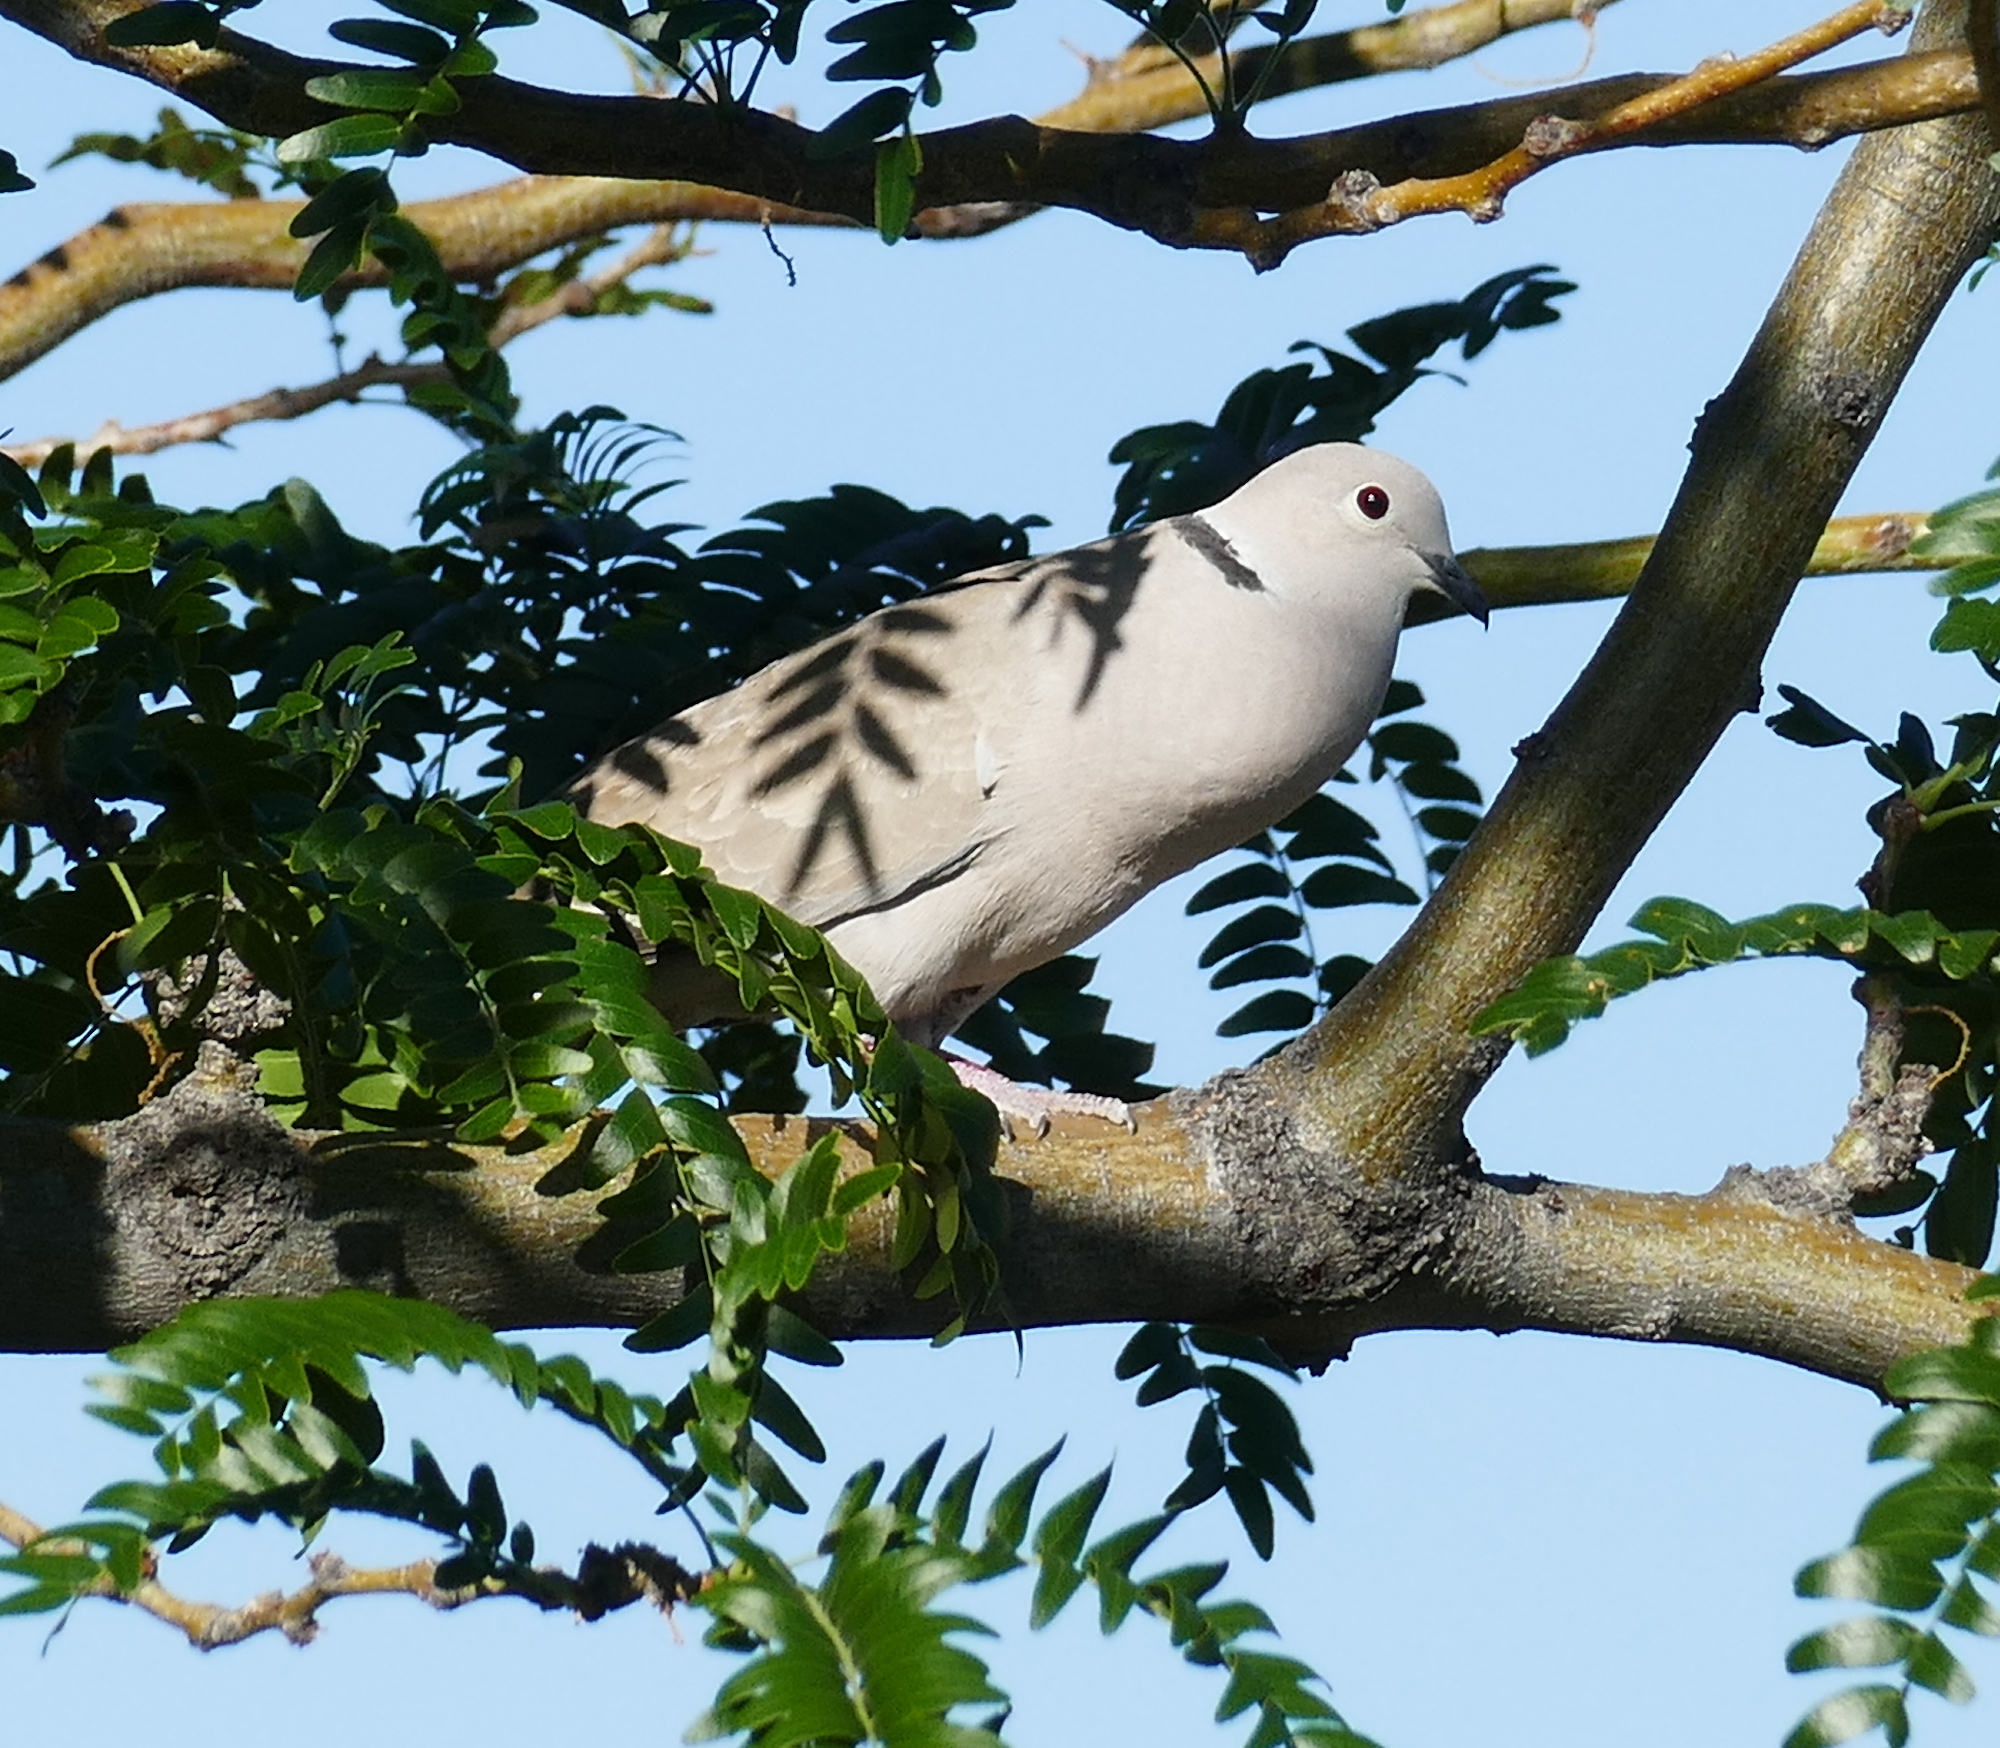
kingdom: Animalia
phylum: Chordata
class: Aves
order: Columbiformes
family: Columbidae
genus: Streptopelia
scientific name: Streptopelia decaocto
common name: Eurasian collared dove
